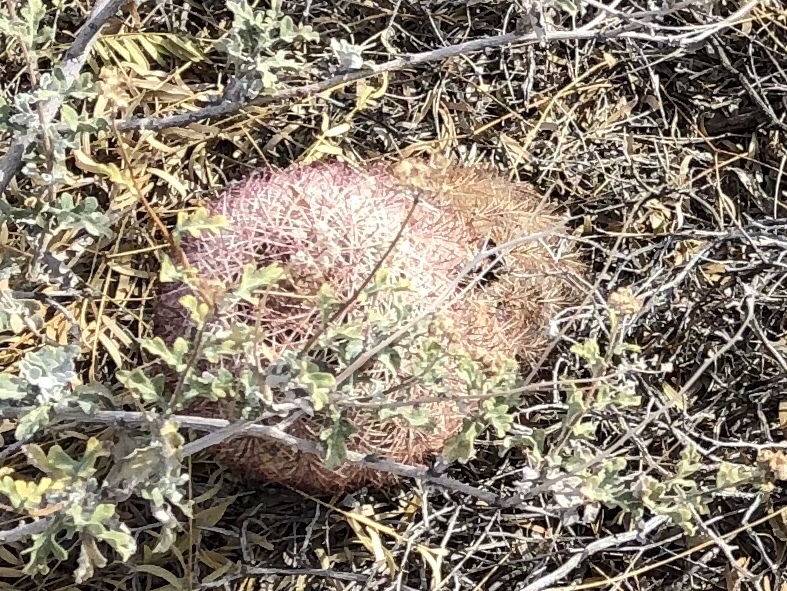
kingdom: Plantae
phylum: Tracheophyta
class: Magnoliopsida
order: Caryophyllales
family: Cactaceae
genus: Echinocereus
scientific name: Echinocereus dasyacanthus
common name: Spiny hedgehog cactus
